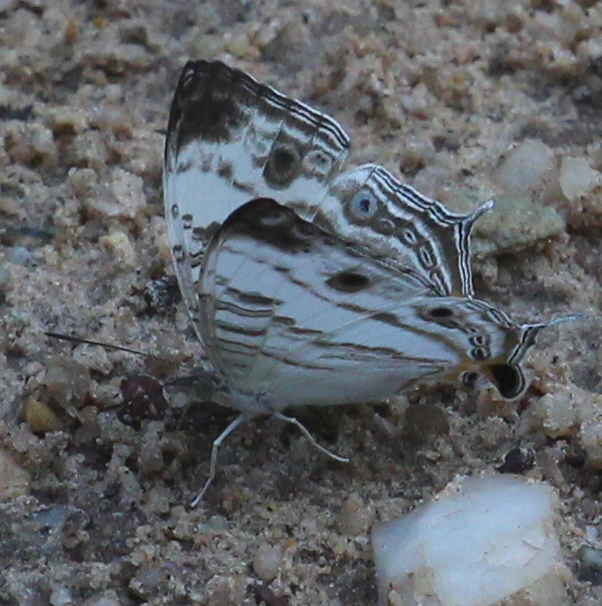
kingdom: Animalia
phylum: Arthropoda
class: Insecta
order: Lepidoptera
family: Nymphalidae
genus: Cyrestis
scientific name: Cyrestis cocles
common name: Marbled map
